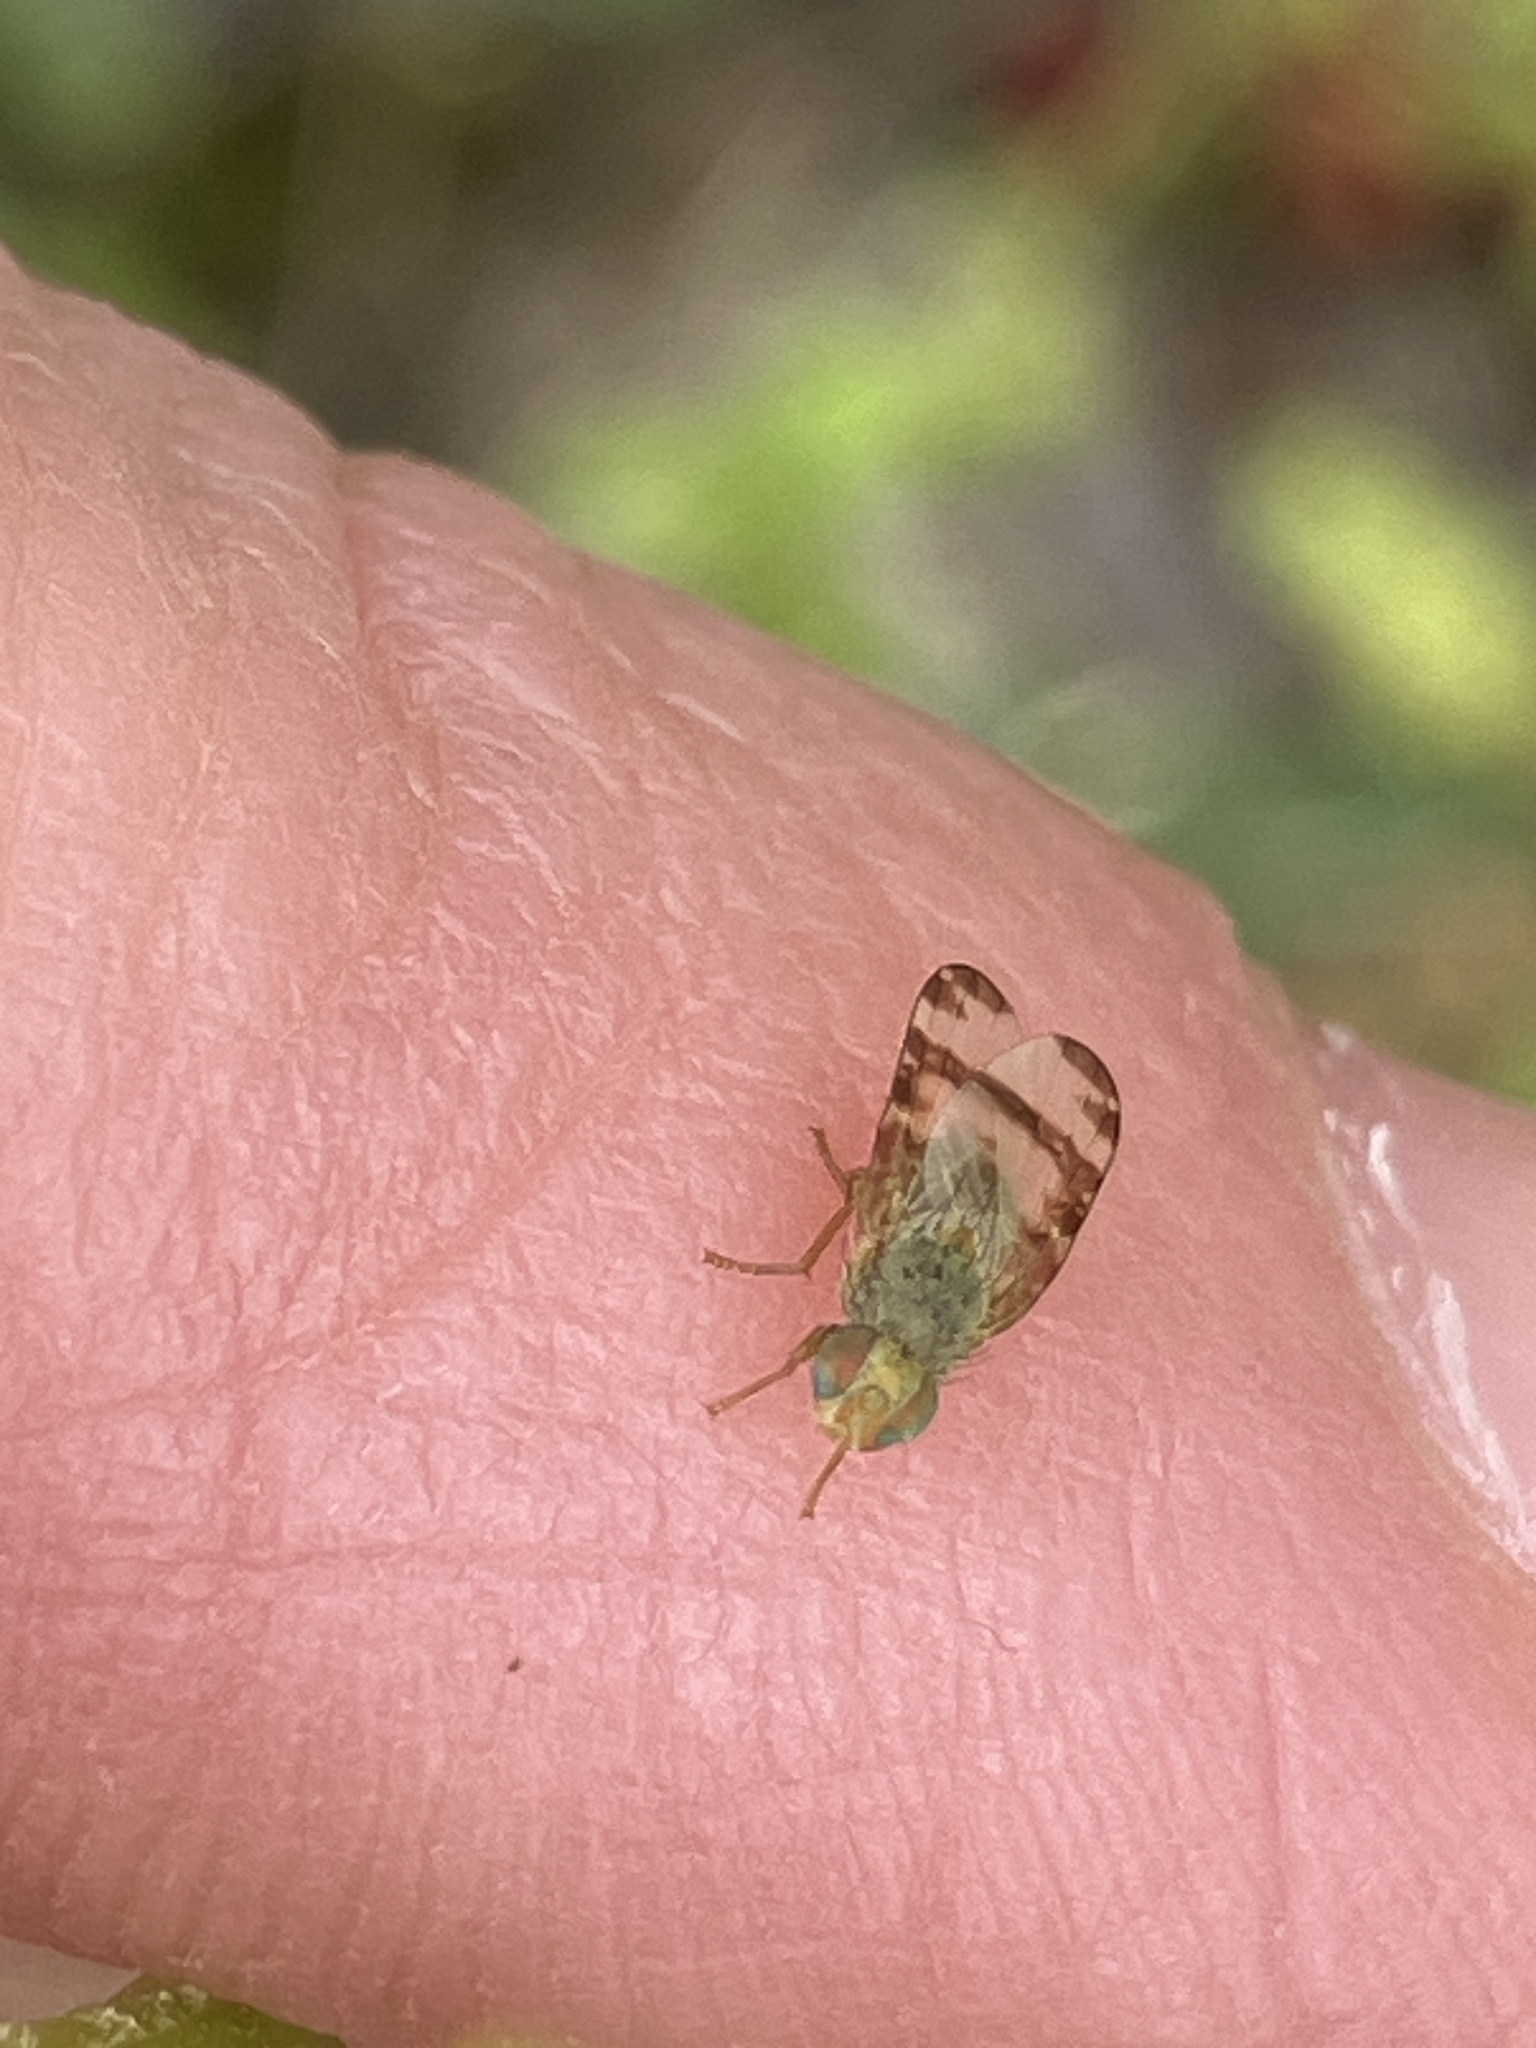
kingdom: Animalia
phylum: Arthropoda
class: Insecta
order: Diptera
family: Tephritidae
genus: Sphenella
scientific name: Sphenella marginata
